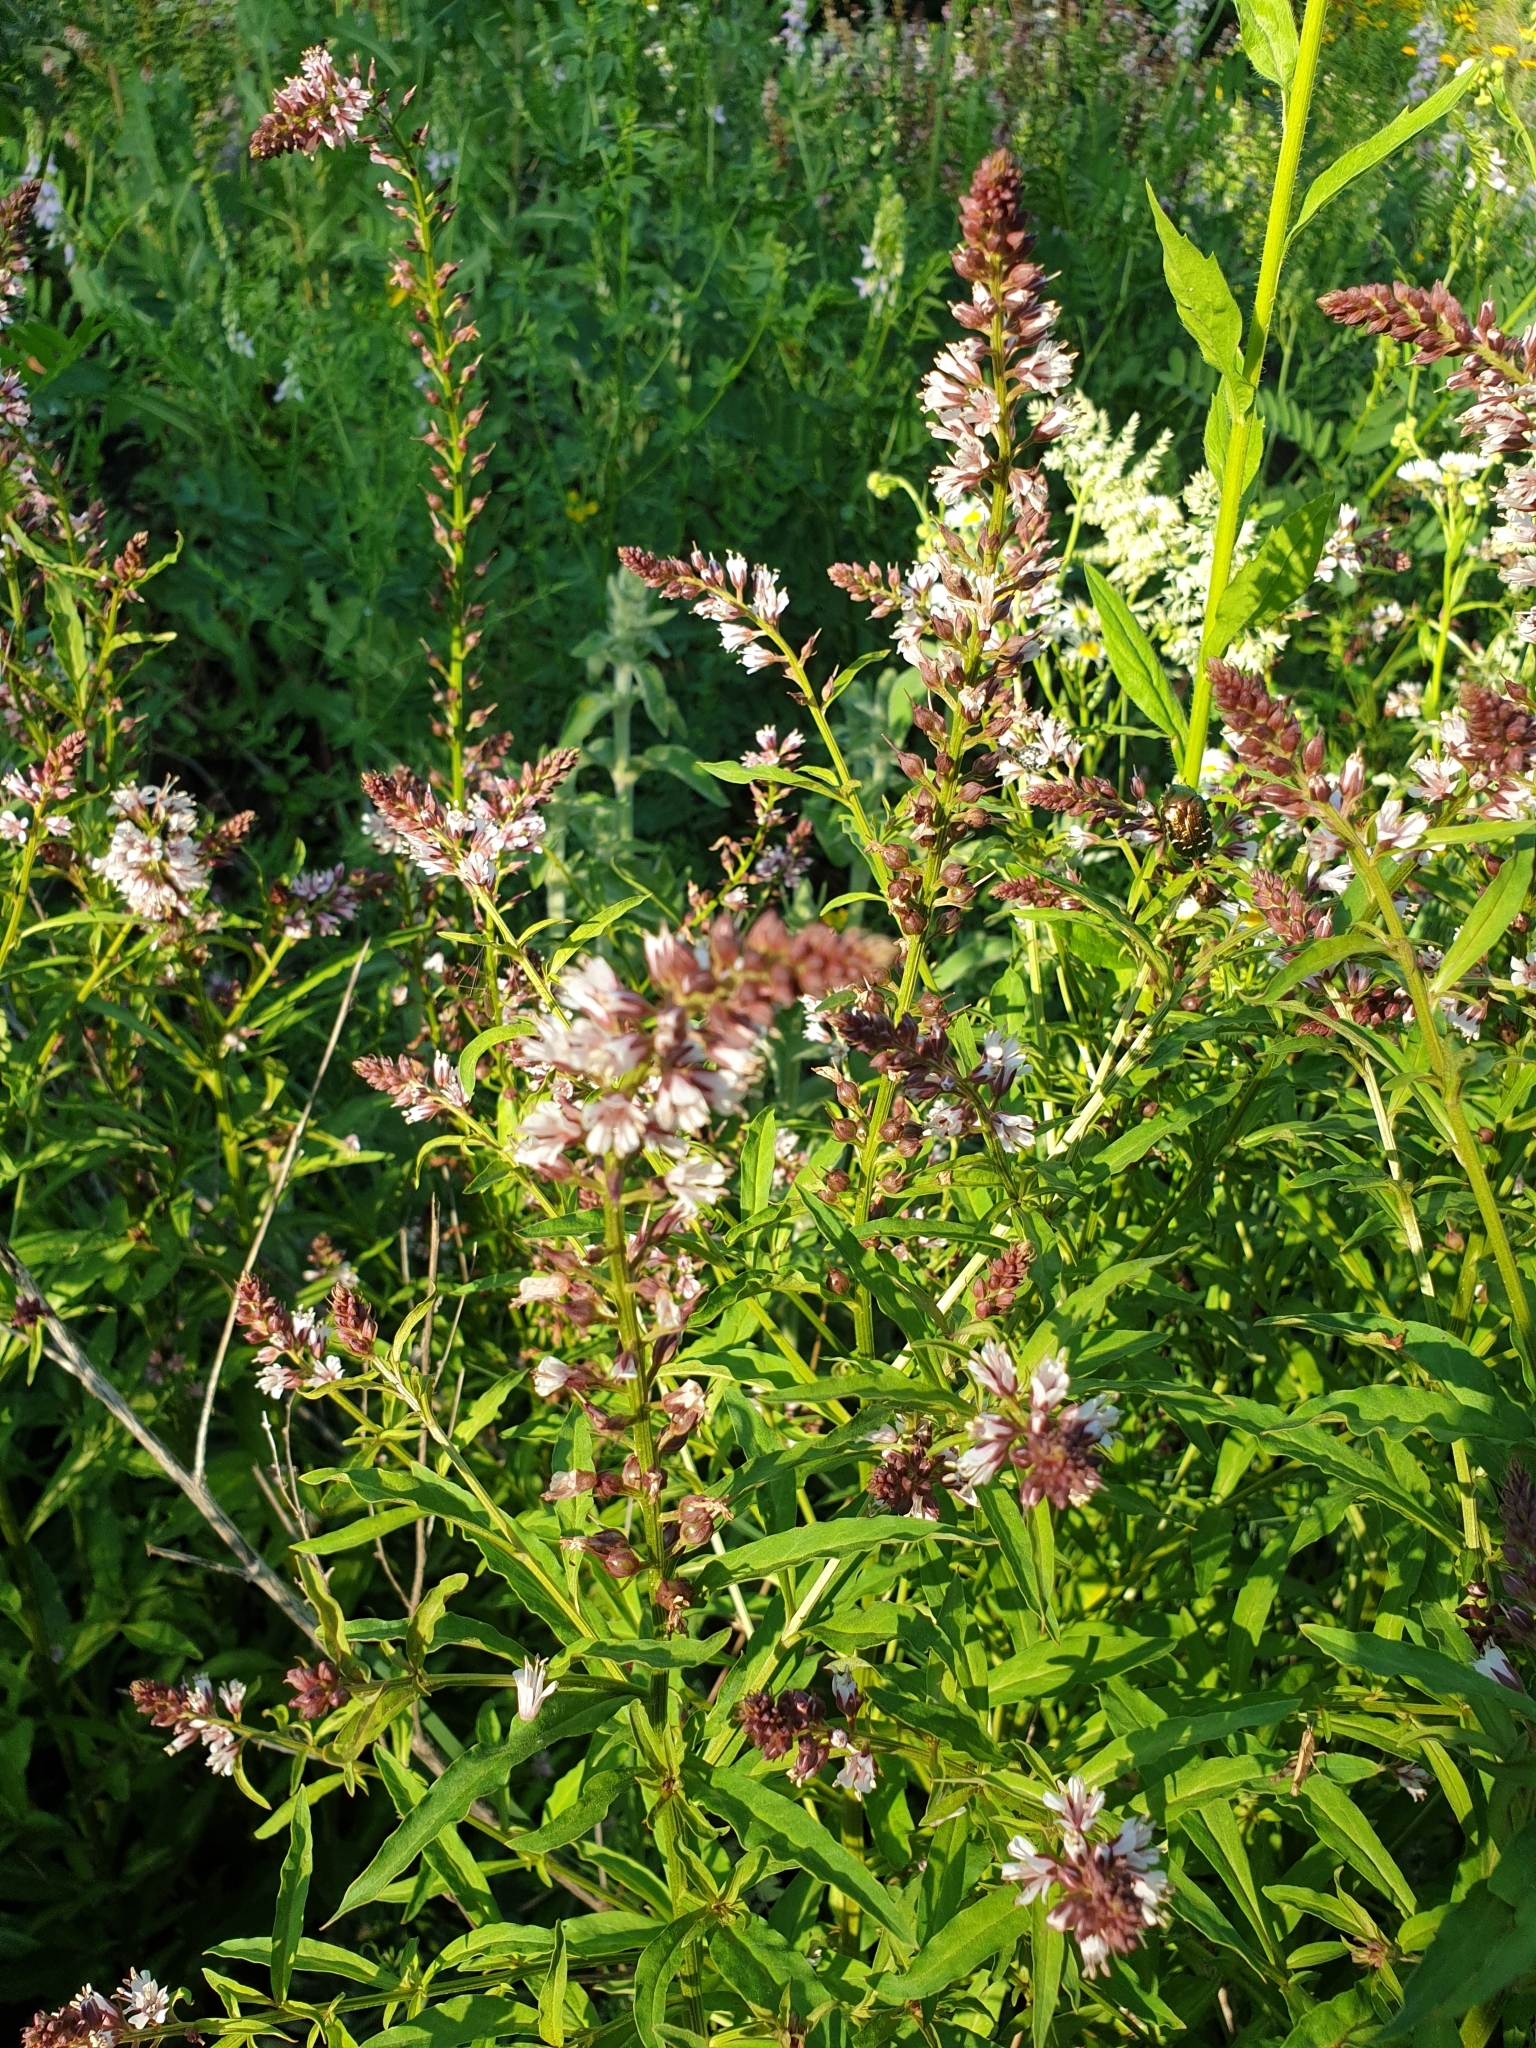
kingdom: Plantae
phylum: Tracheophyta
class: Magnoliopsida
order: Ericales
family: Primulaceae
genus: Lysimachia
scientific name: Lysimachia dubia
